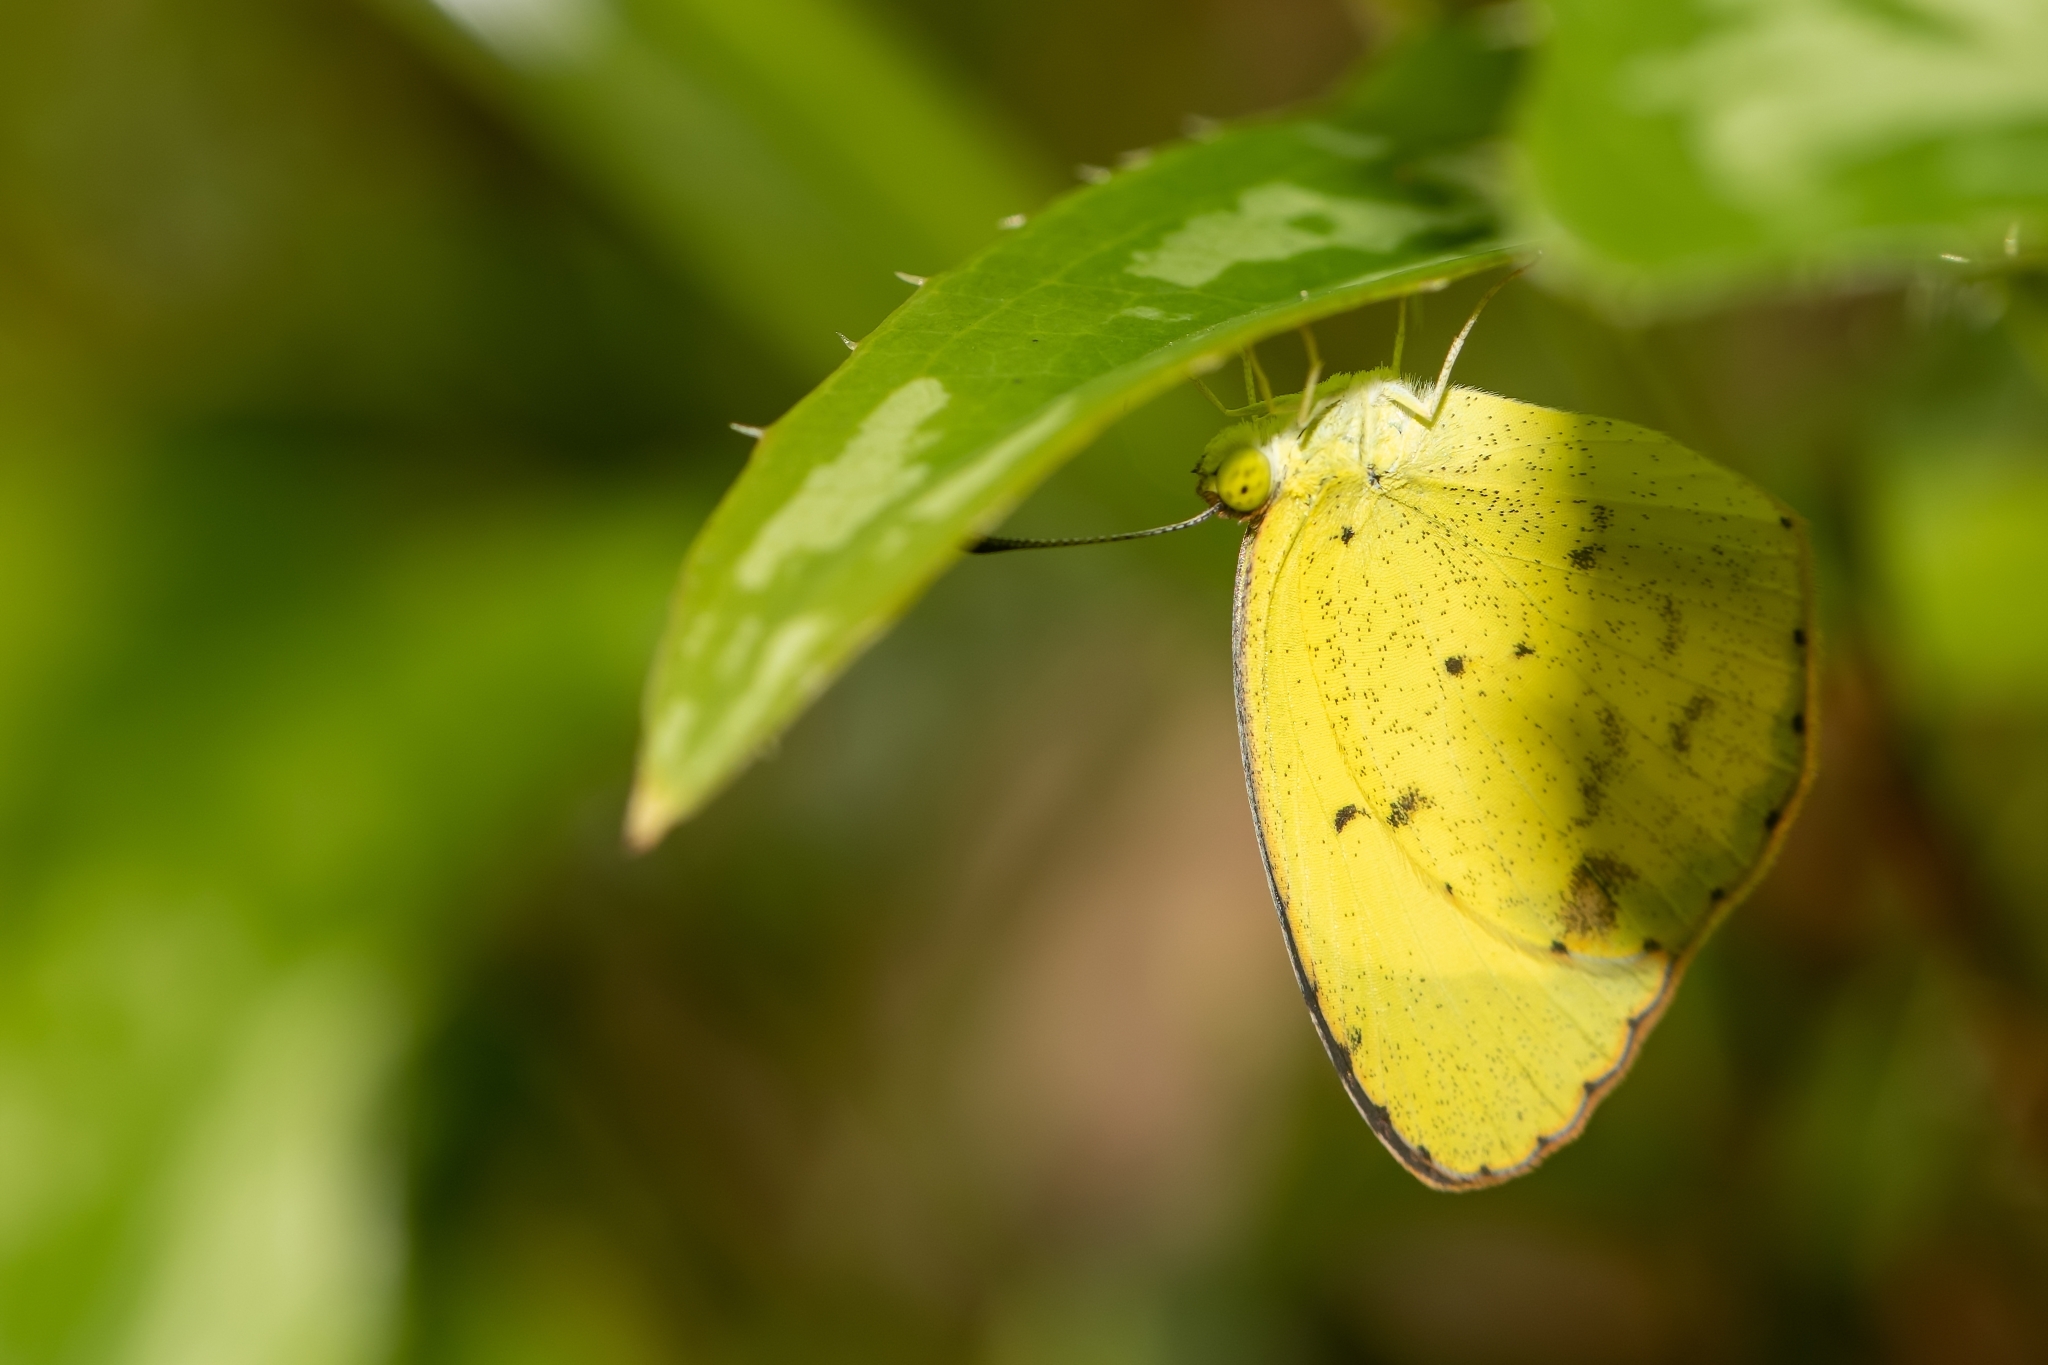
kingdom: Animalia
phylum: Arthropoda
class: Insecta
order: Lepidoptera
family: Pieridae
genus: Pyrisitia
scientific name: Pyrisitia lisa
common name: Little yellow
